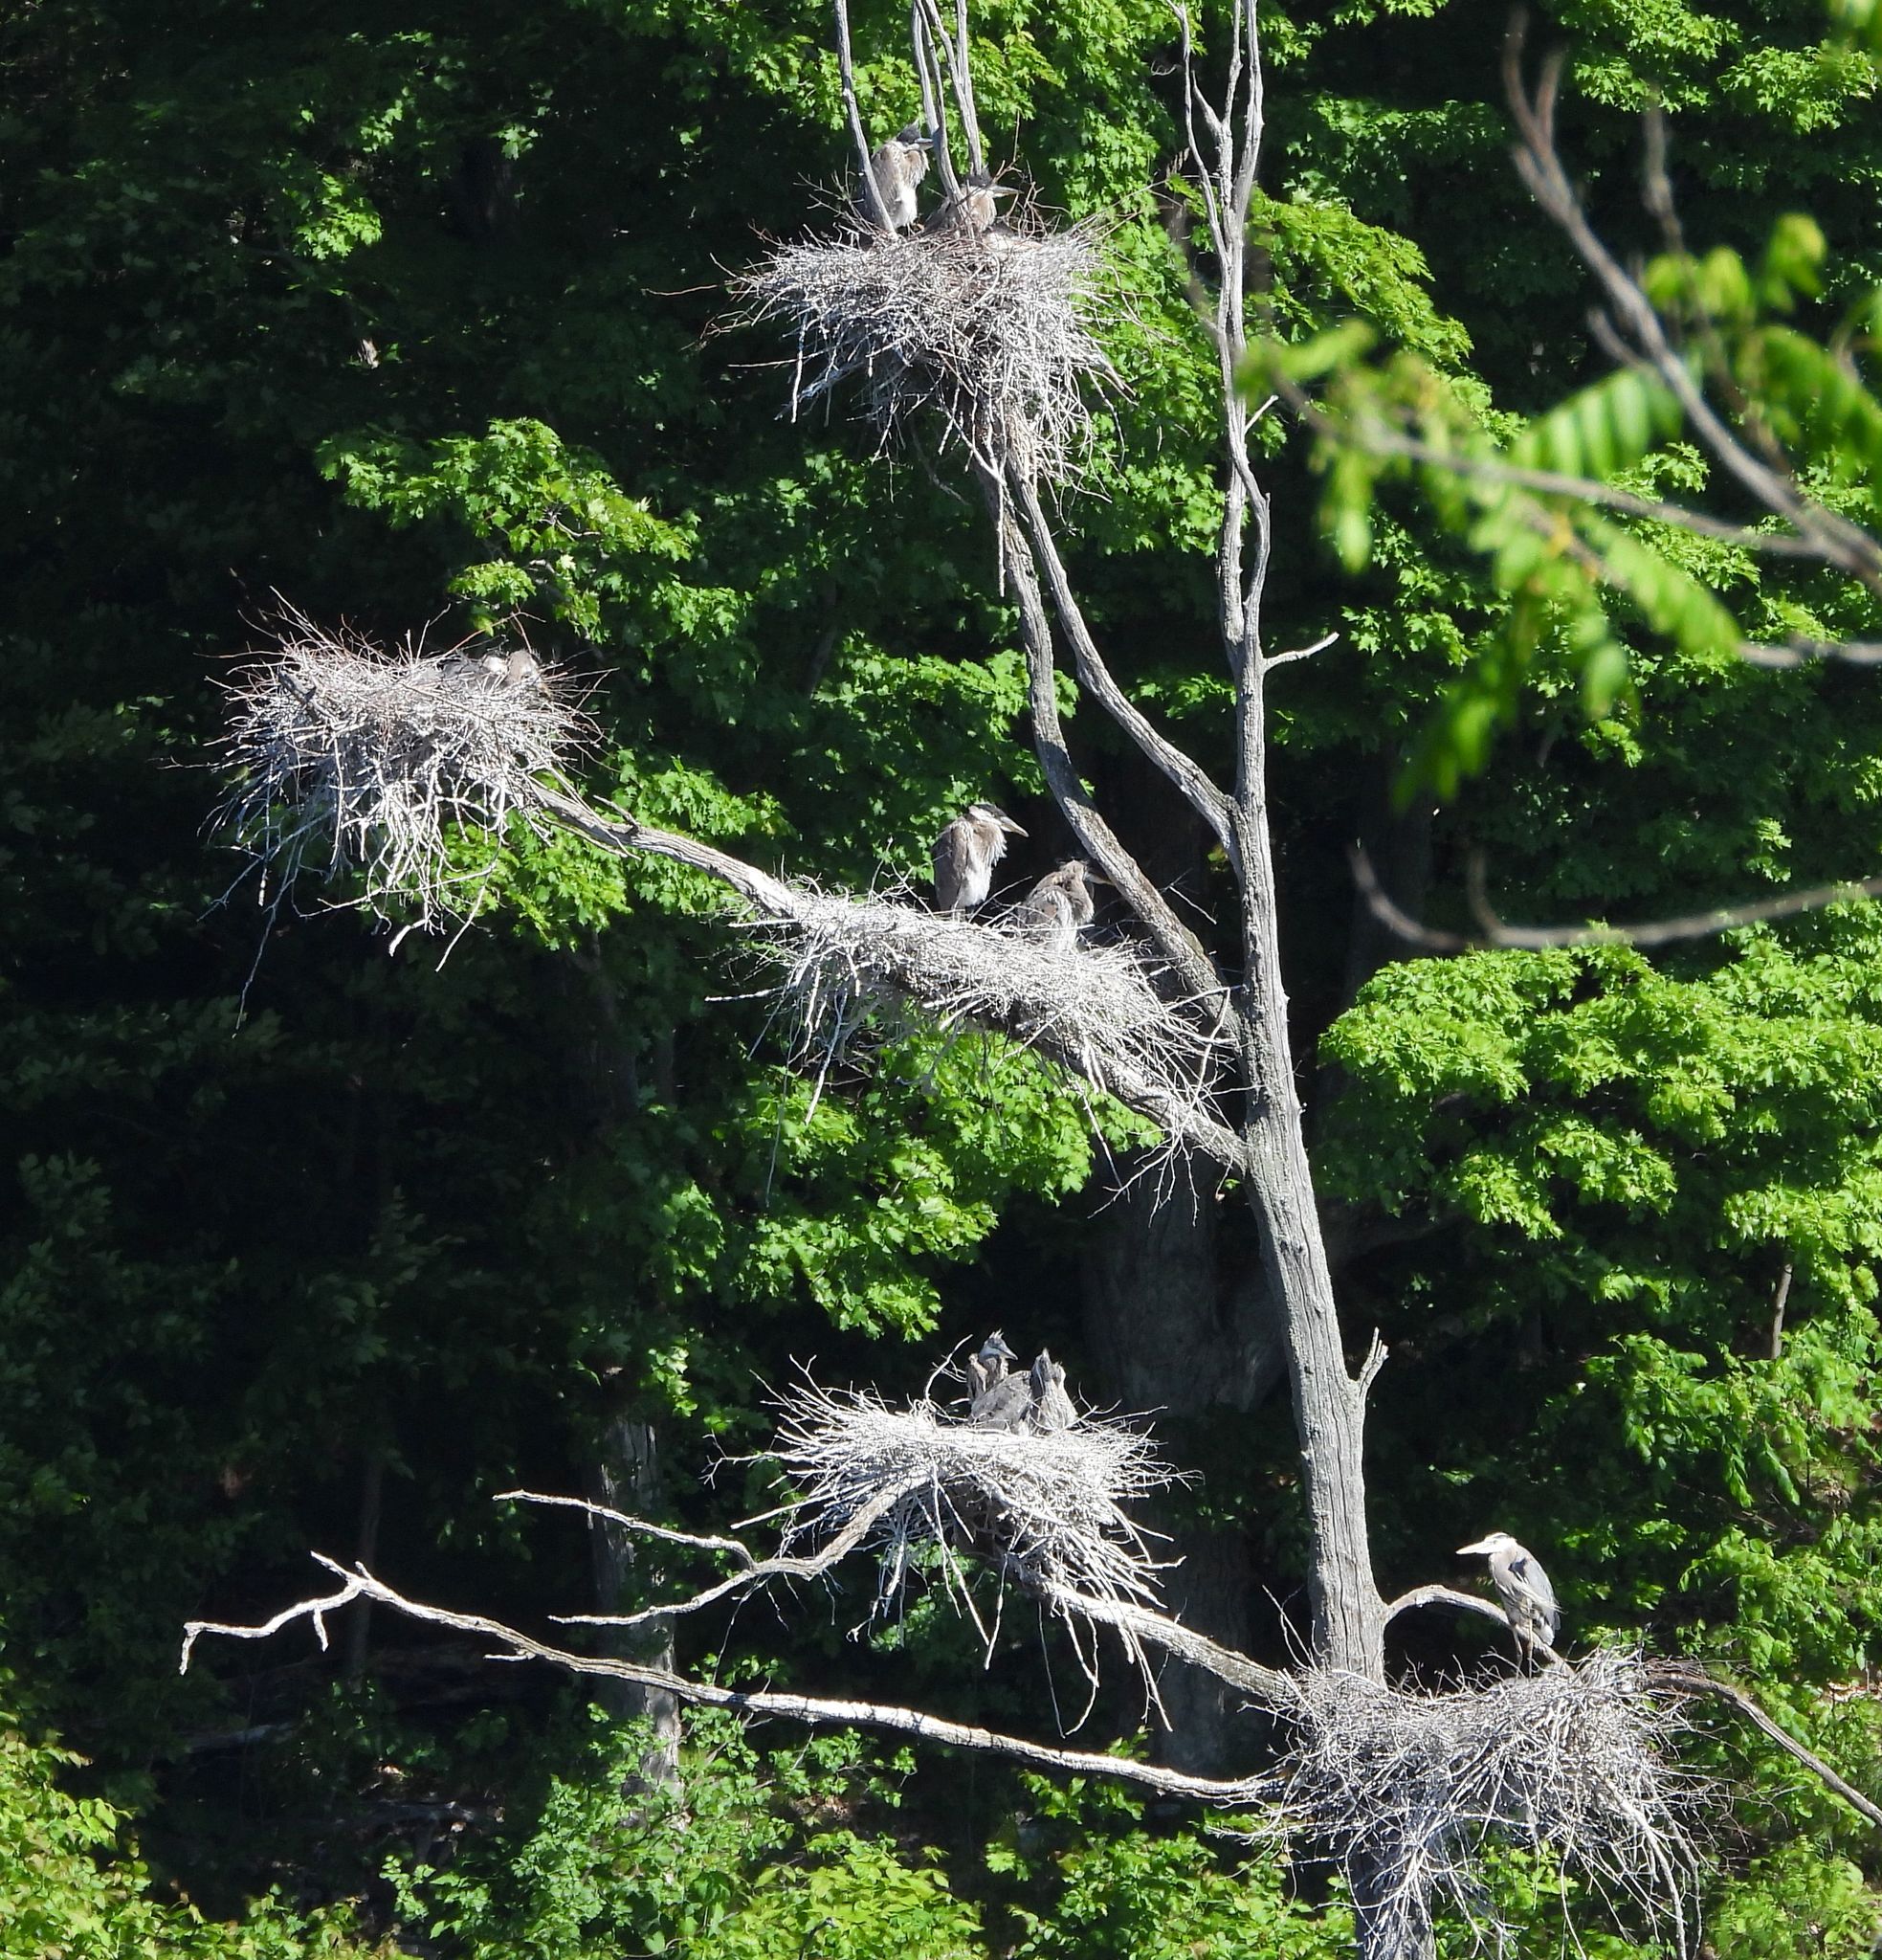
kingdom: Animalia
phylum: Chordata
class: Aves
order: Pelecaniformes
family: Ardeidae
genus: Ardea
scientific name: Ardea herodias
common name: Great blue heron
